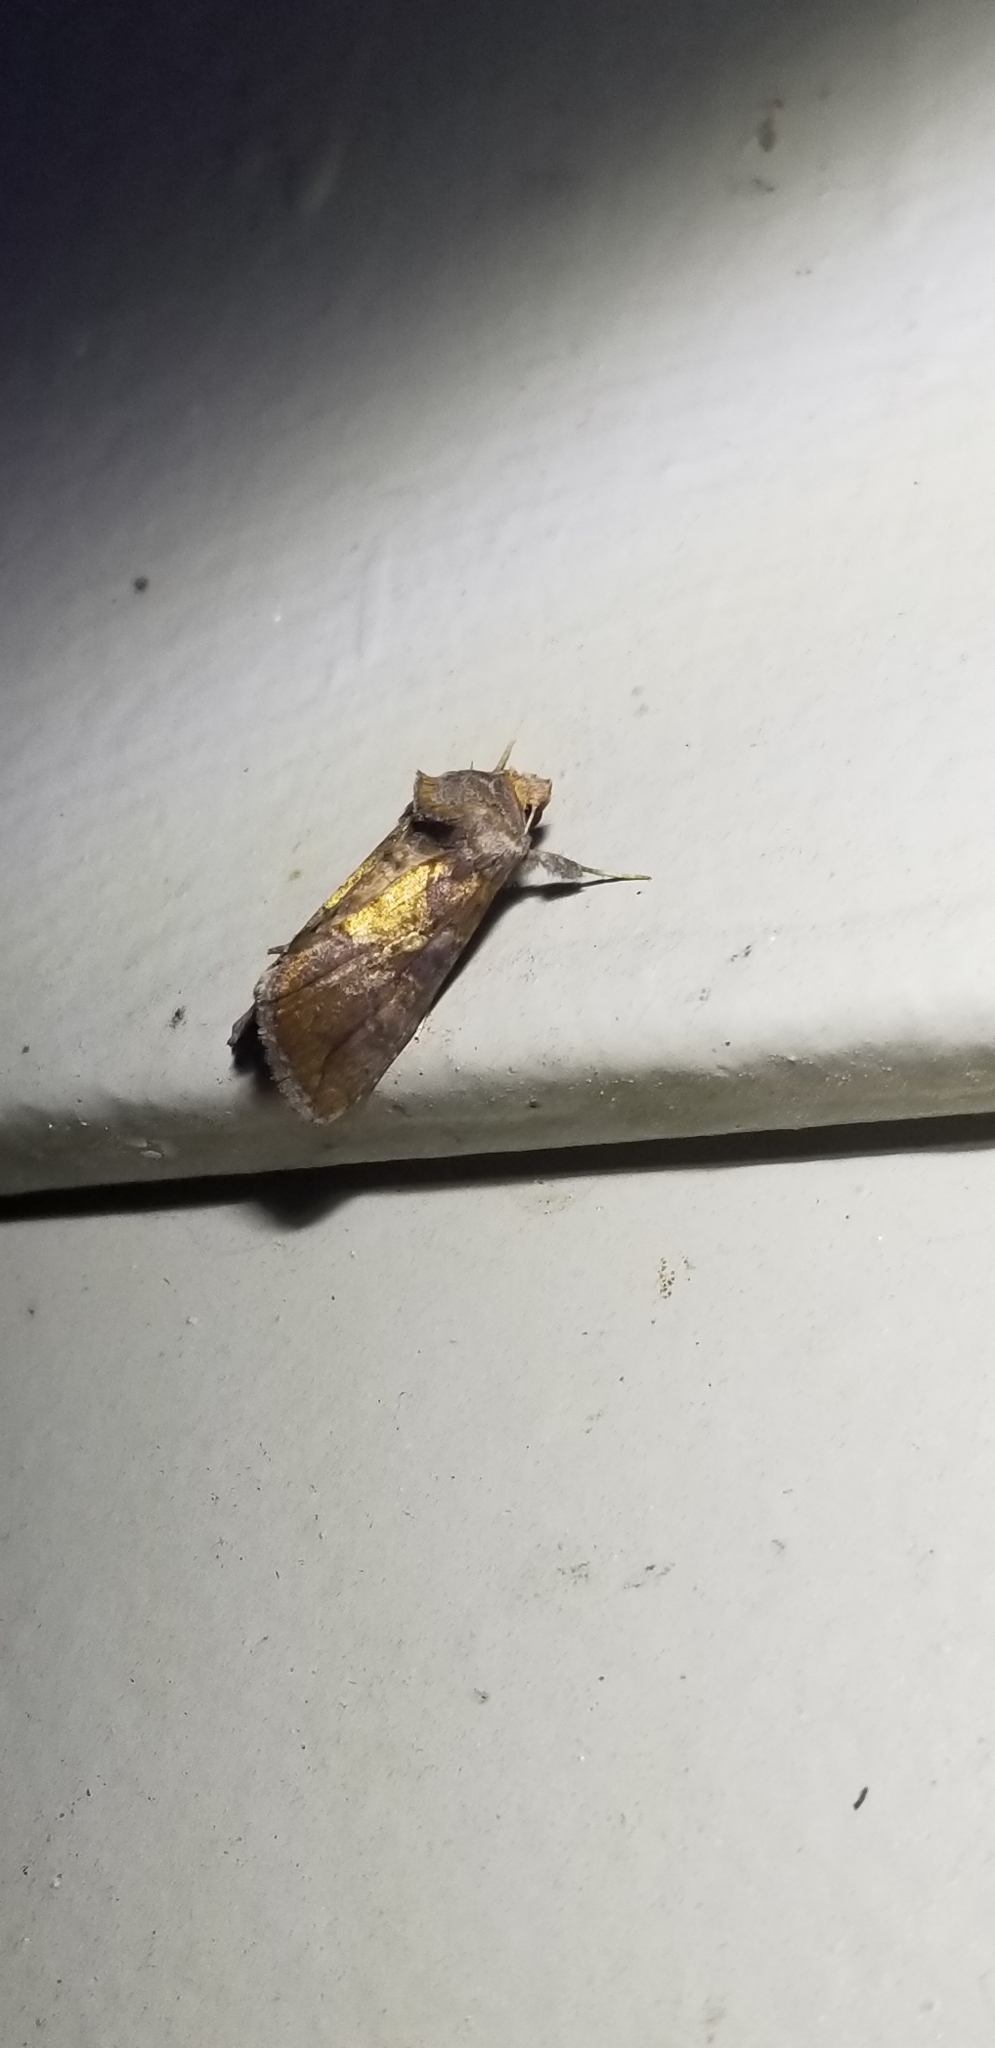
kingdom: Animalia
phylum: Arthropoda
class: Insecta
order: Lepidoptera
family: Noctuidae
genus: Argyrogramma
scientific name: Argyrogramma verruca
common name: Golden looper moth
